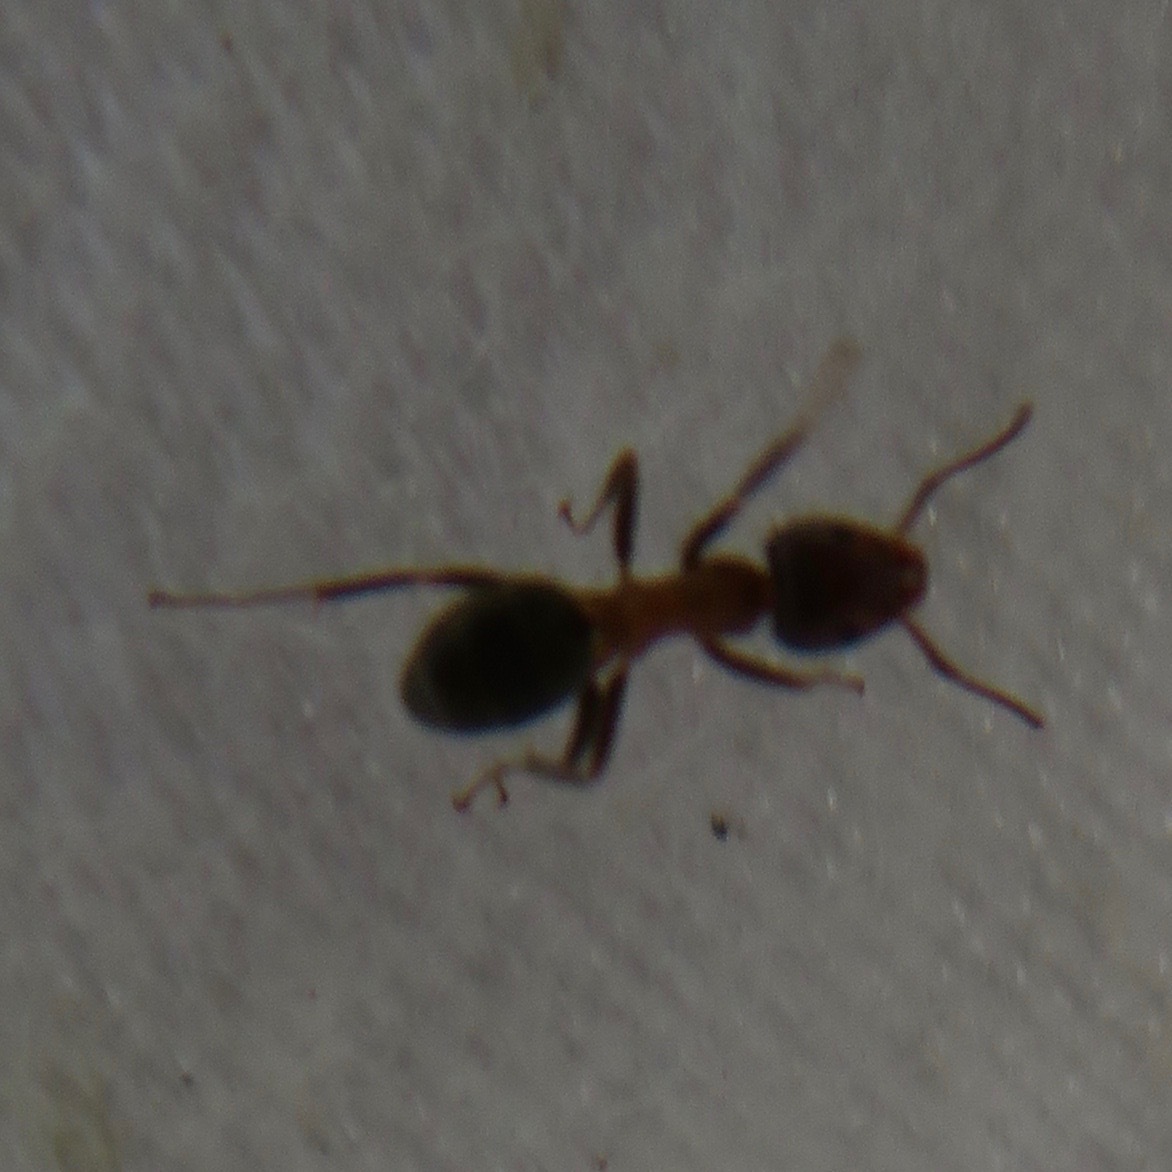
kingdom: Animalia
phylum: Arthropoda
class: Insecta
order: Hymenoptera
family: Formicidae
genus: Liometopum
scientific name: Liometopum occidentale
